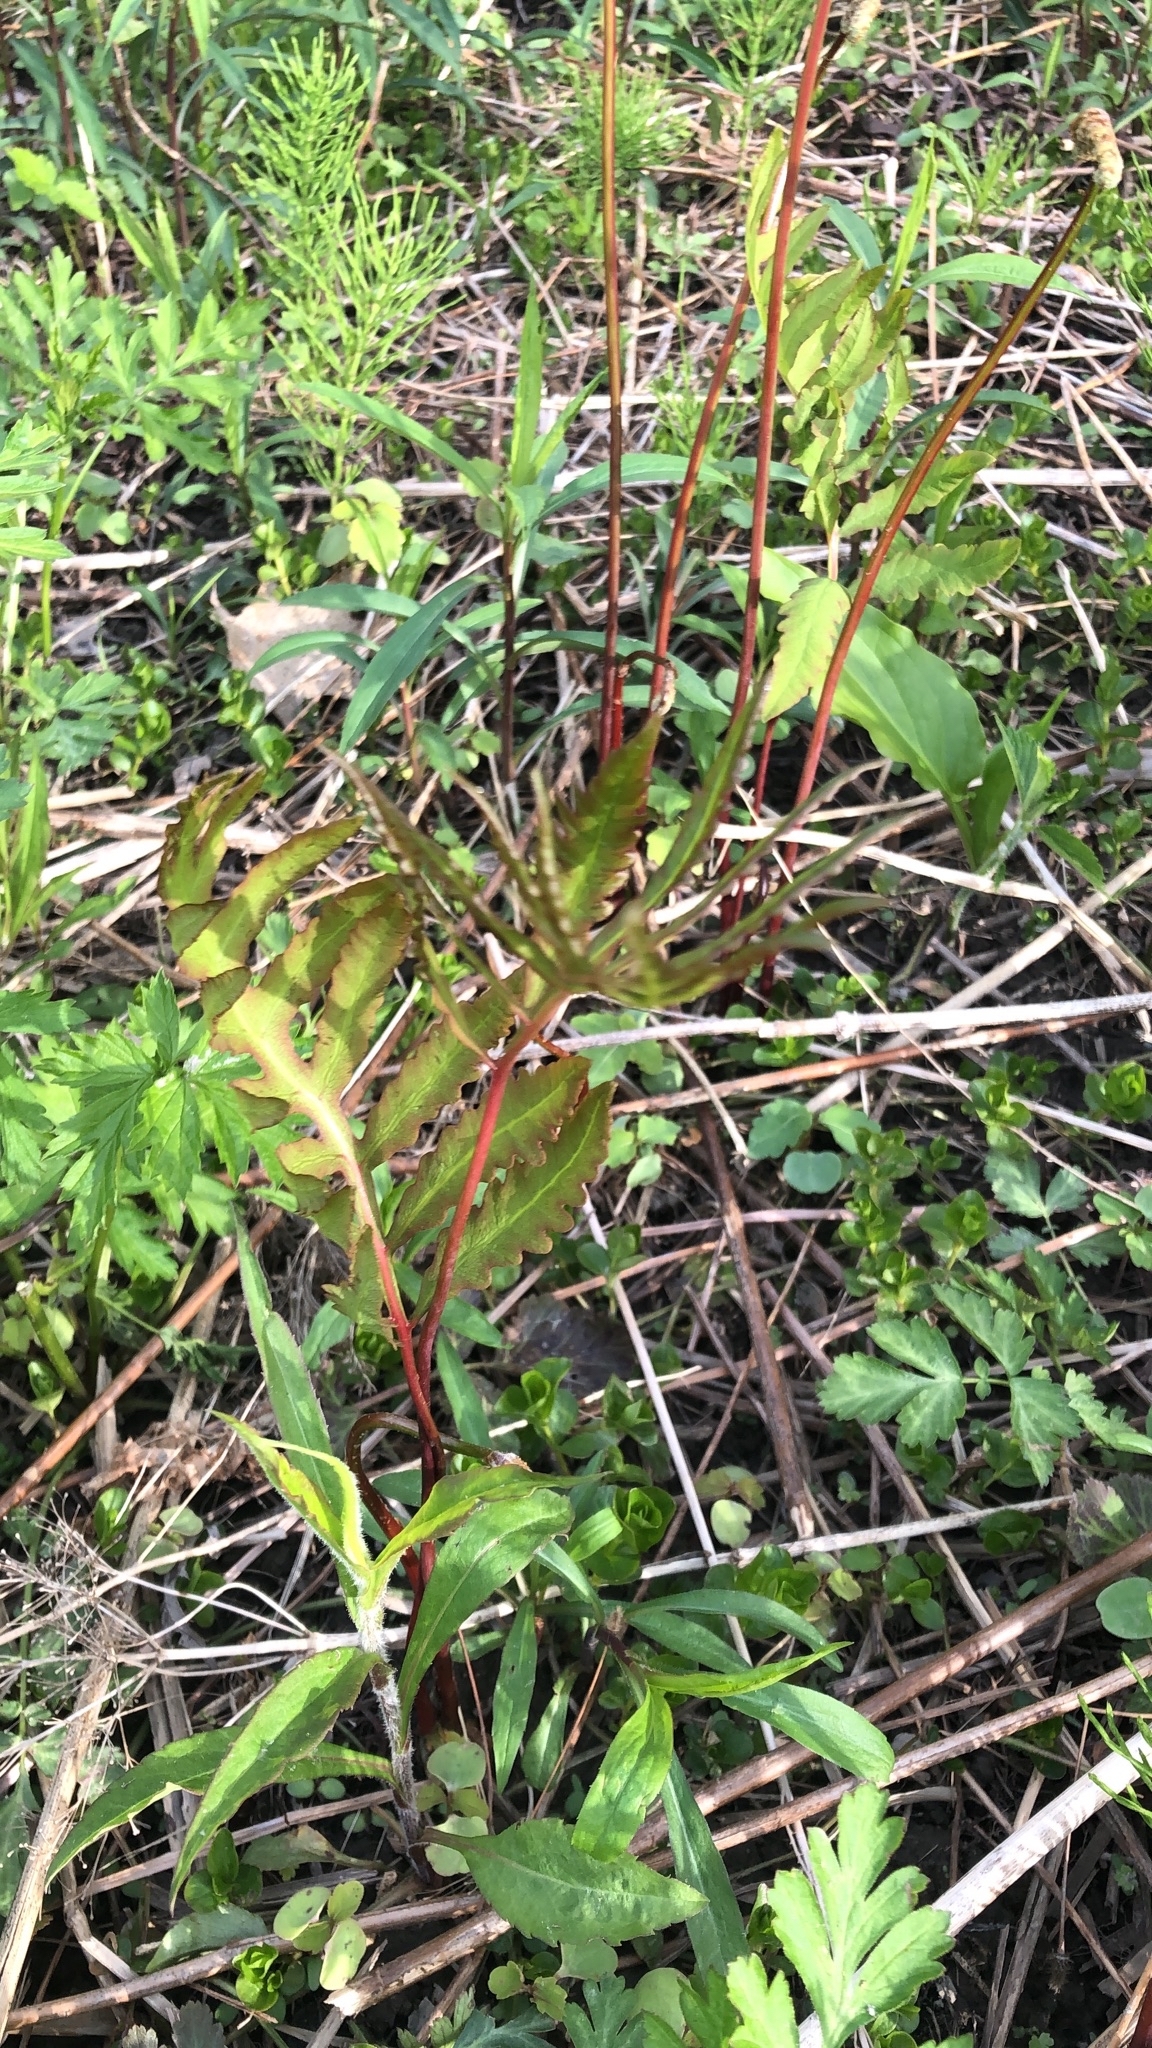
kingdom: Plantae
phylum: Tracheophyta
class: Polypodiopsida
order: Polypodiales
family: Onocleaceae
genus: Onoclea
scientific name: Onoclea sensibilis
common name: Sensitive fern
